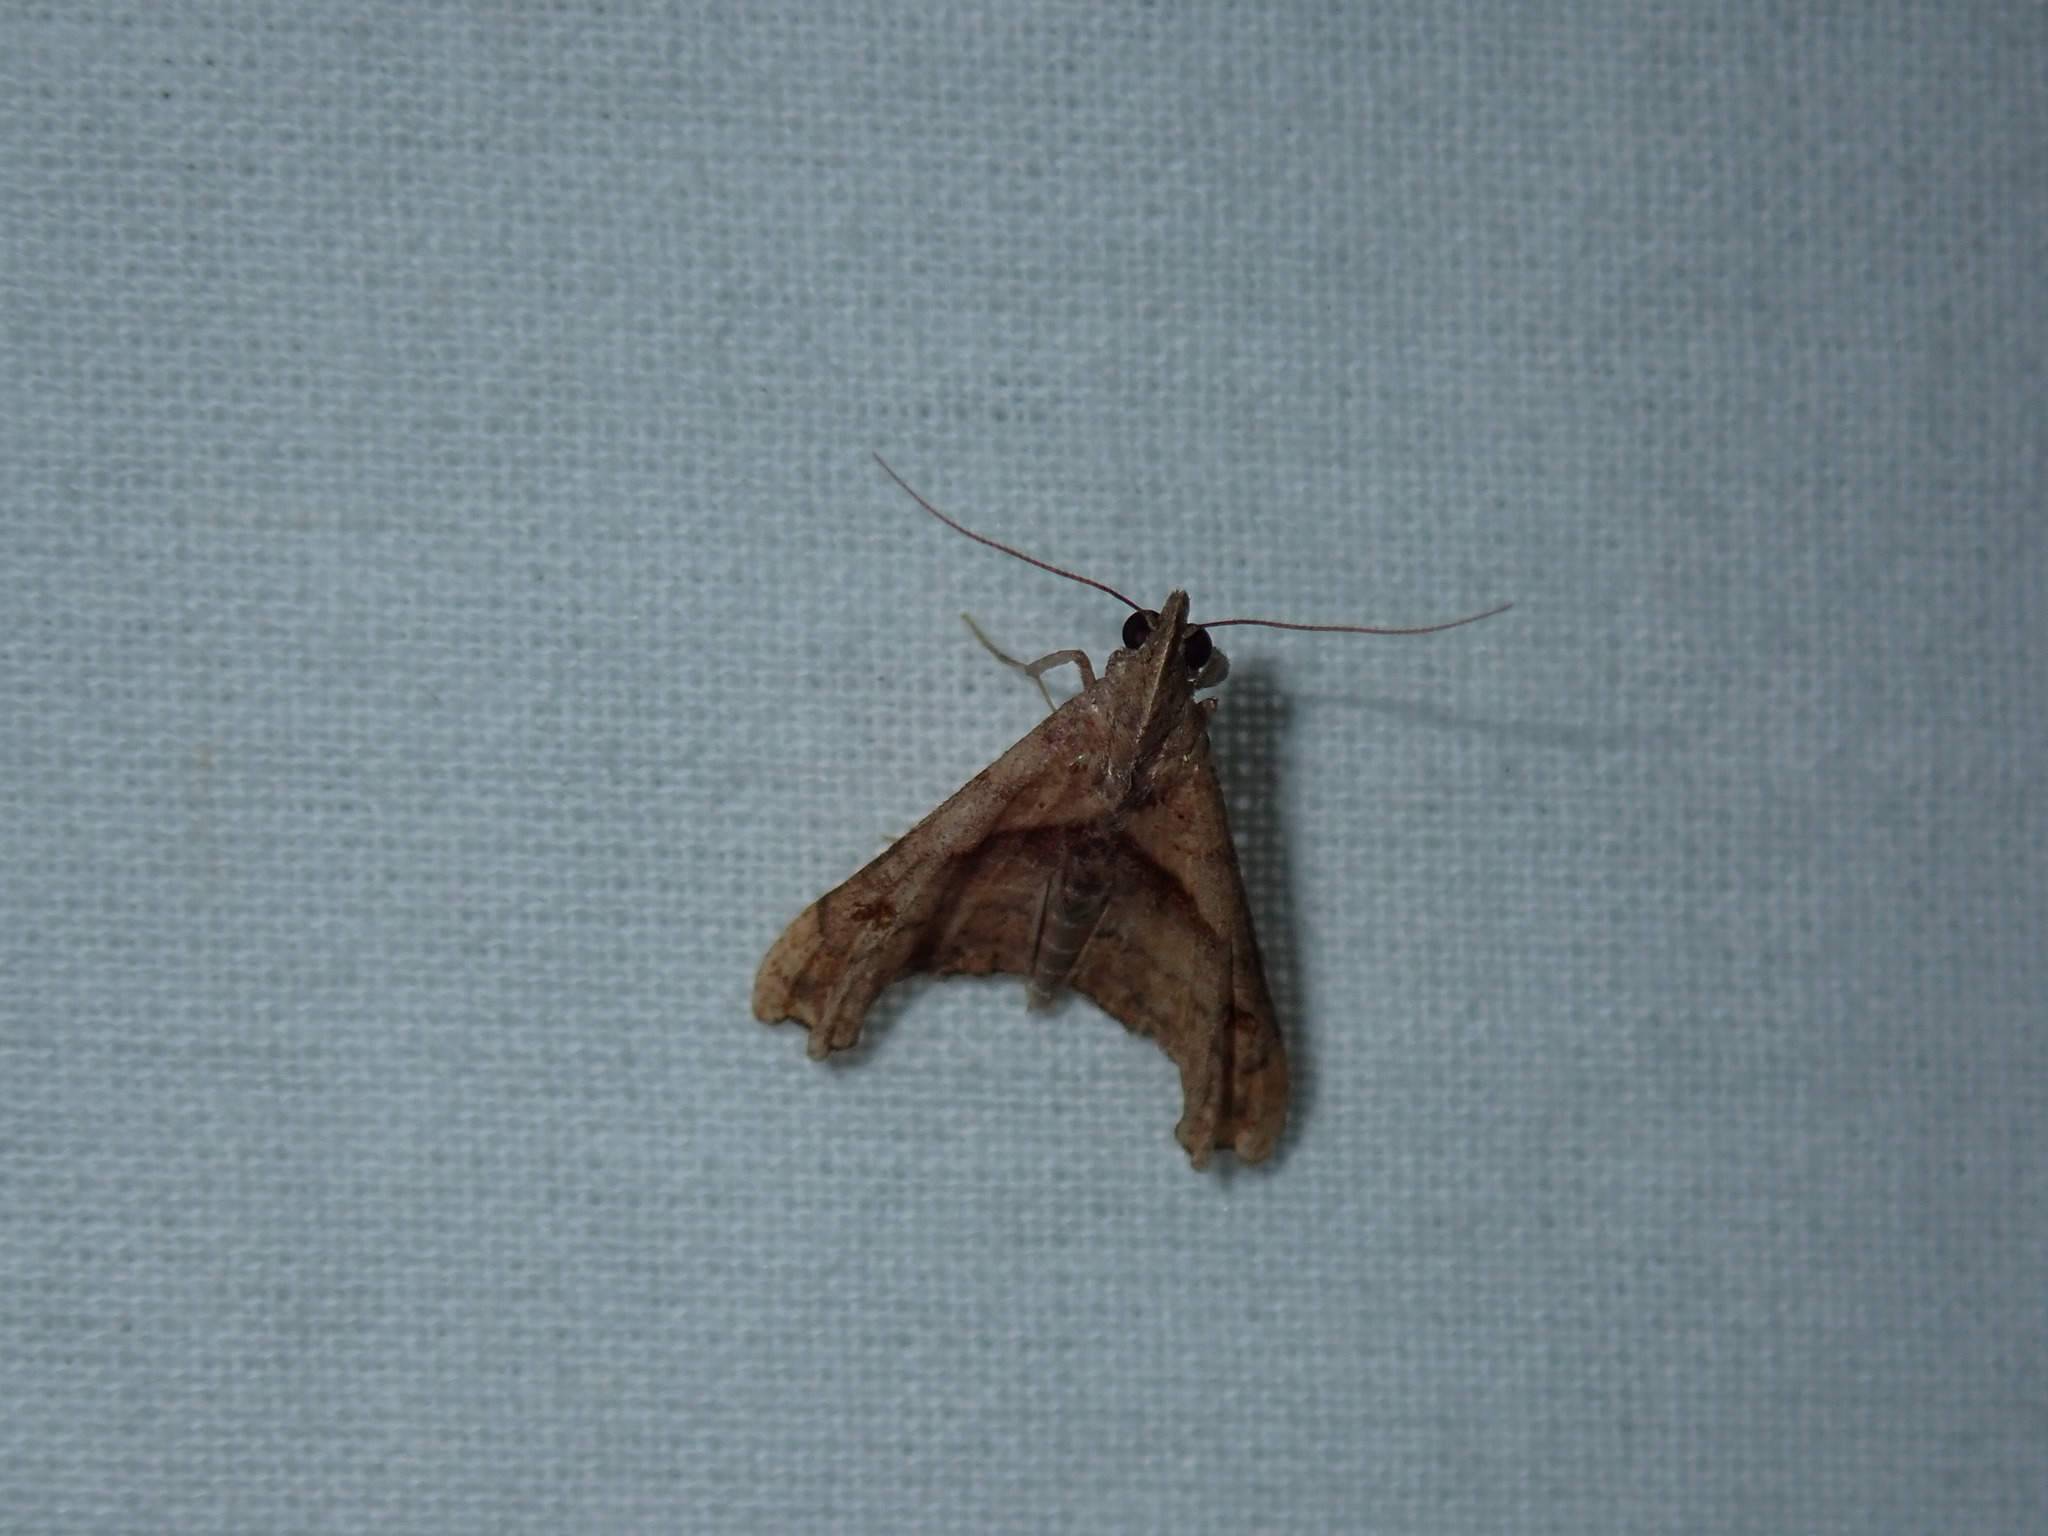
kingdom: Animalia
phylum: Arthropoda
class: Insecta
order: Lepidoptera
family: Erebidae
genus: Palthis
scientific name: Palthis angulalis
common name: Dark-spotted palthis moth
